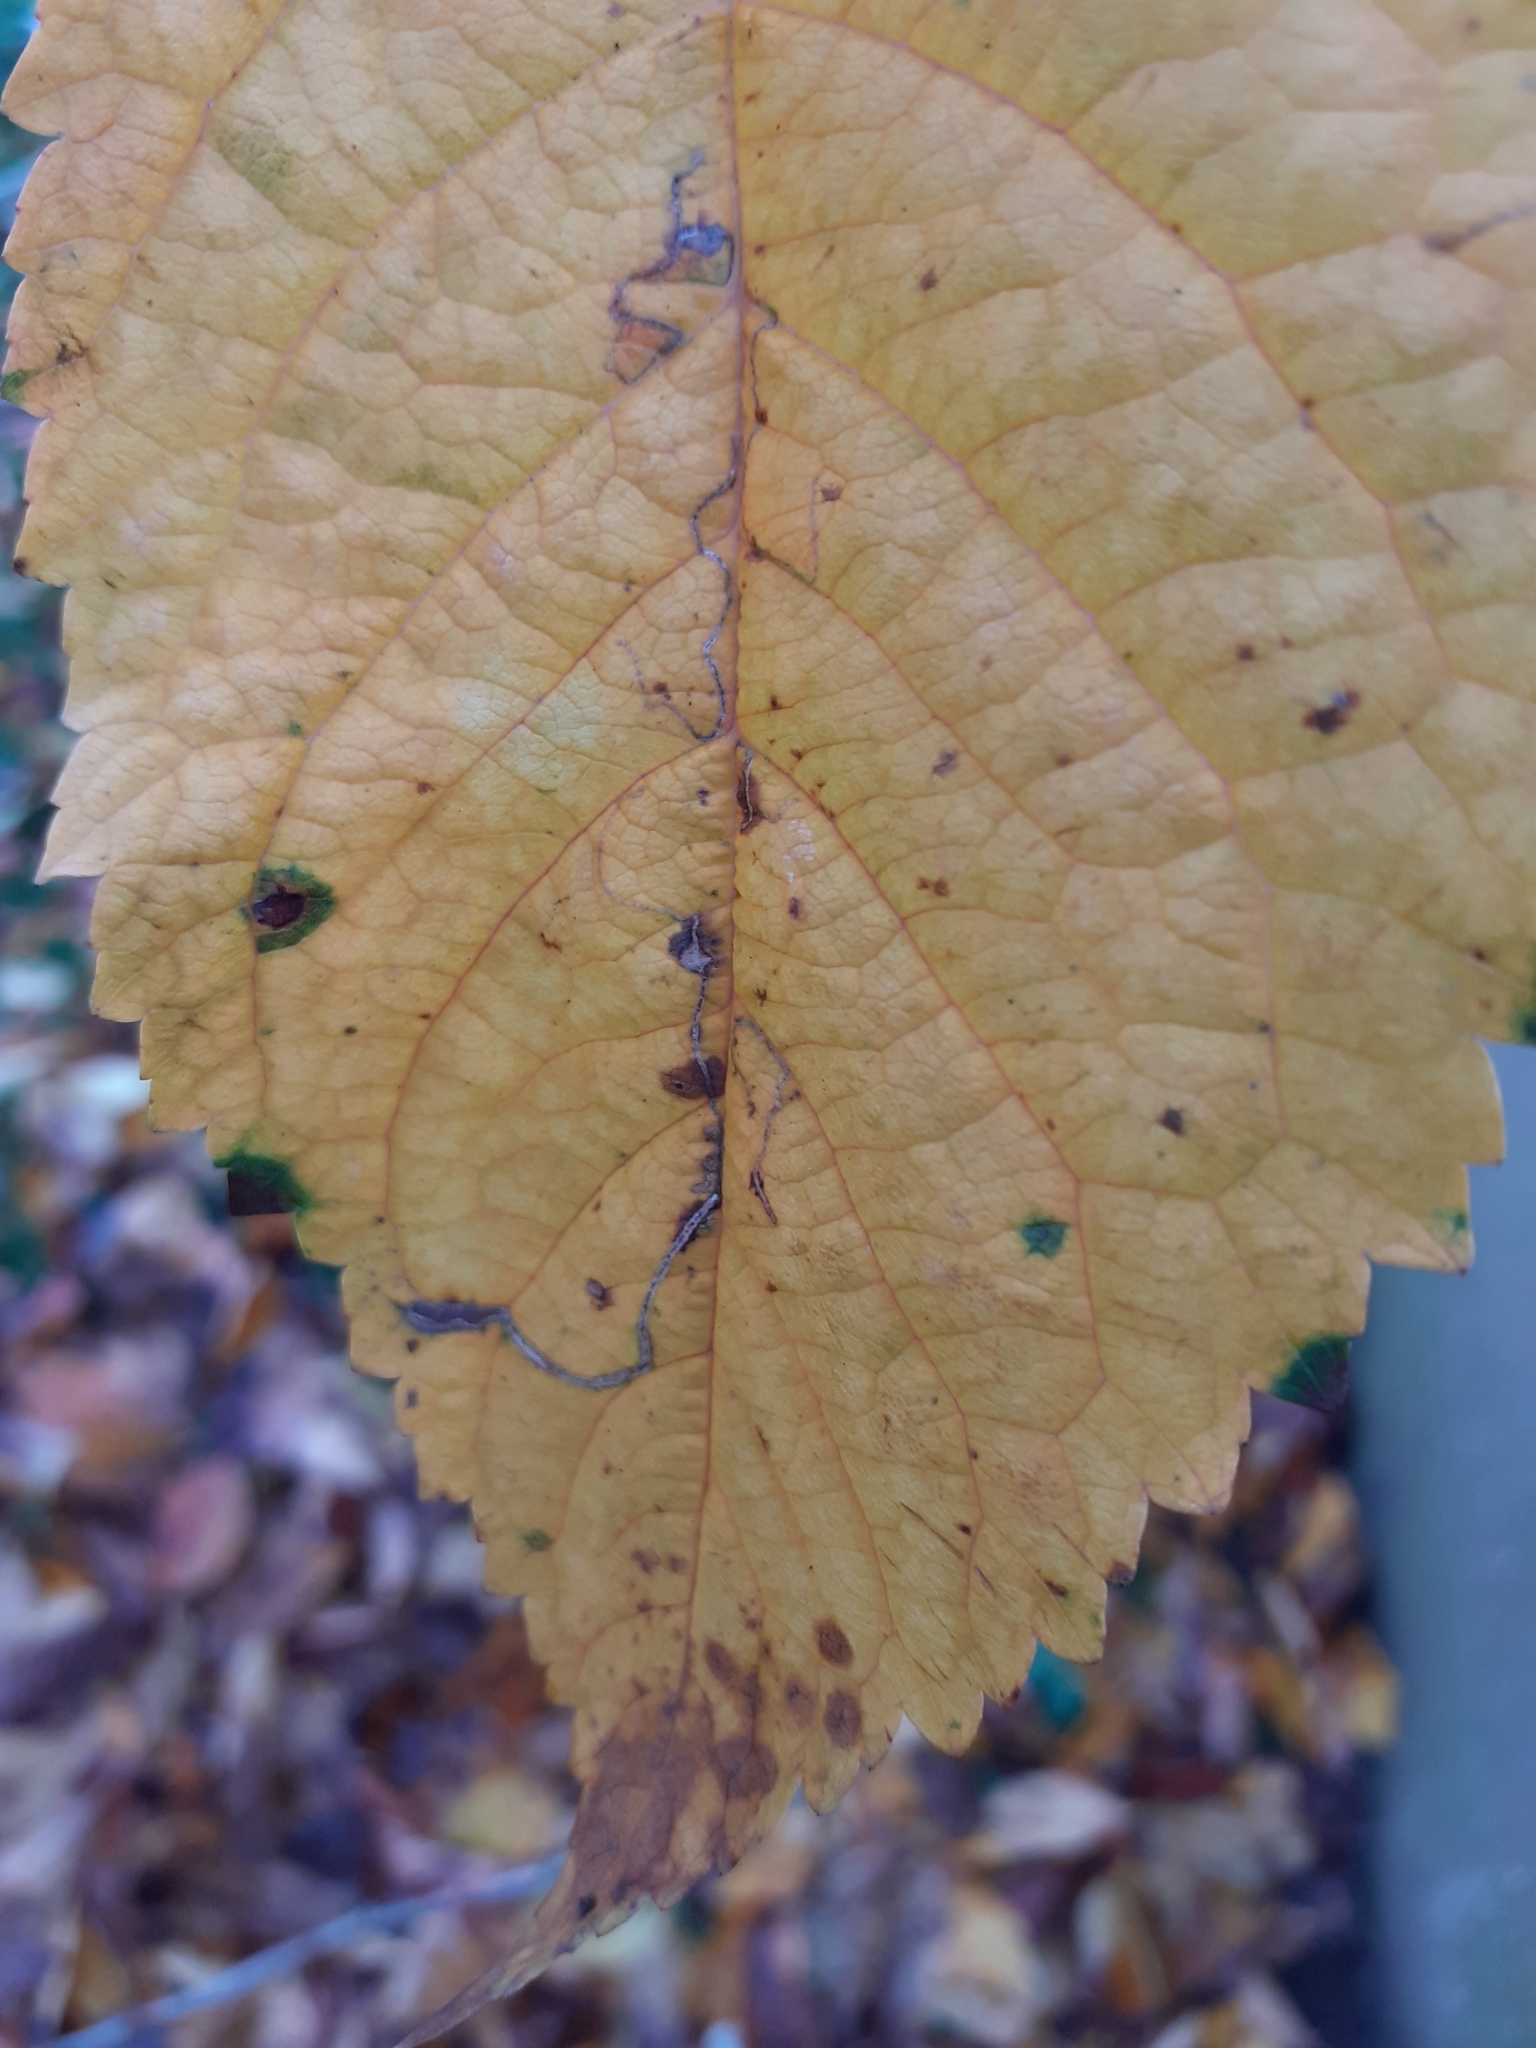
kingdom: Animalia
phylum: Arthropoda
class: Insecta
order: Lepidoptera
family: Lyonetiidae
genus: Lyonetia
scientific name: Lyonetia clerkella
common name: Apple leaf miner
